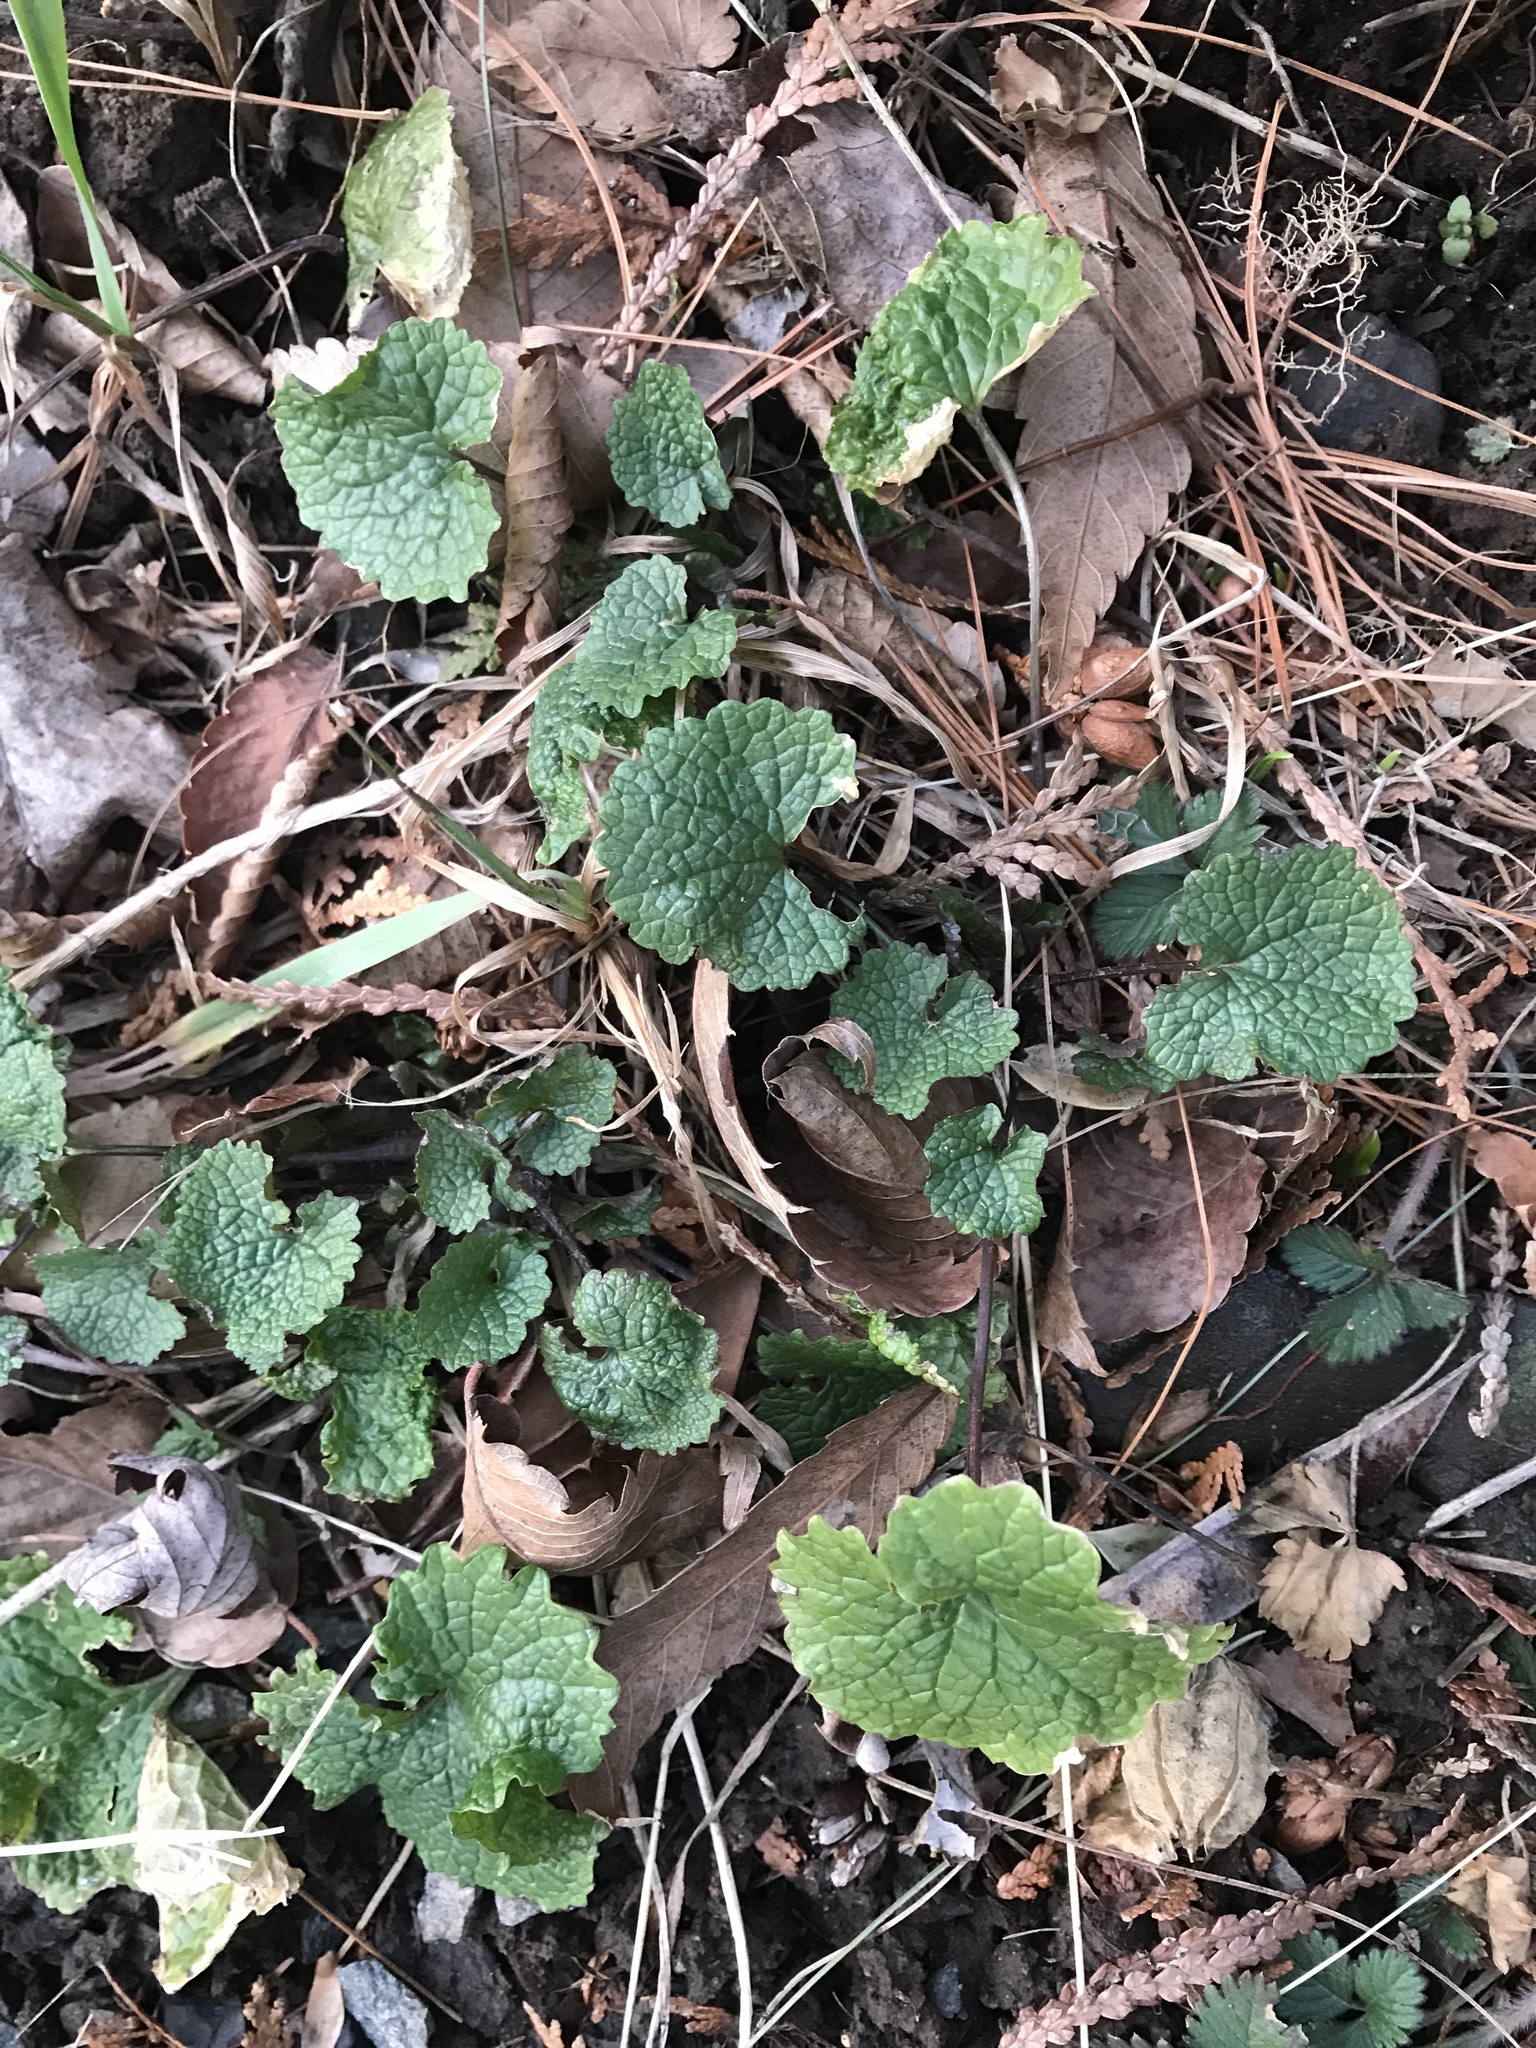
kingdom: Plantae
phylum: Tracheophyta
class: Magnoliopsida
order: Brassicales
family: Brassicaceae
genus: Alliaria
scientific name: Alliaria petiolata
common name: Garlic mustard
